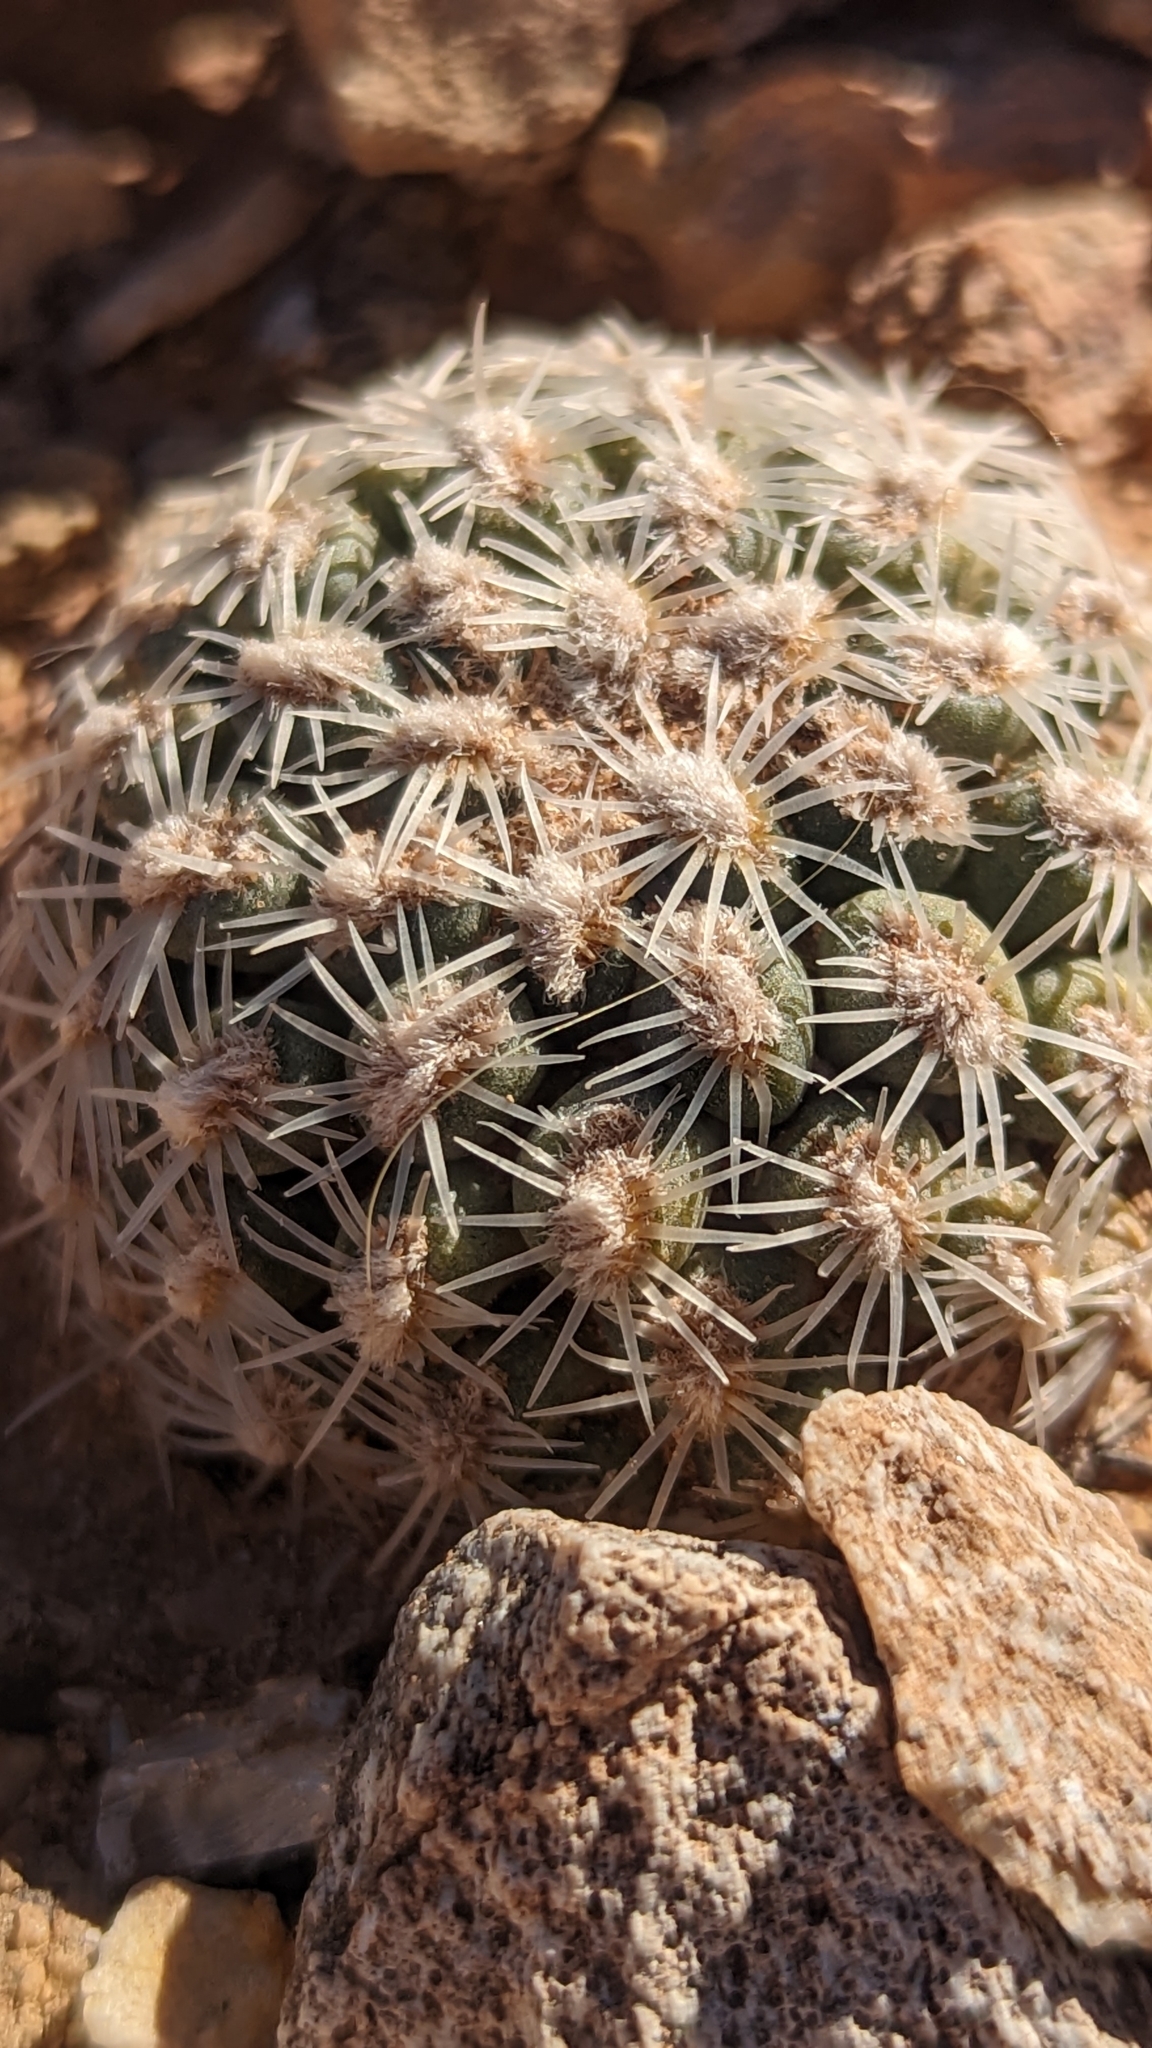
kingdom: Plantae
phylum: Tracheophyta
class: Magnoliopsida
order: Caryophyllales
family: Cactaceae
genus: Pediocactus
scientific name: Pediocactus bradyi
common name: Brady's hedgehog cactus
